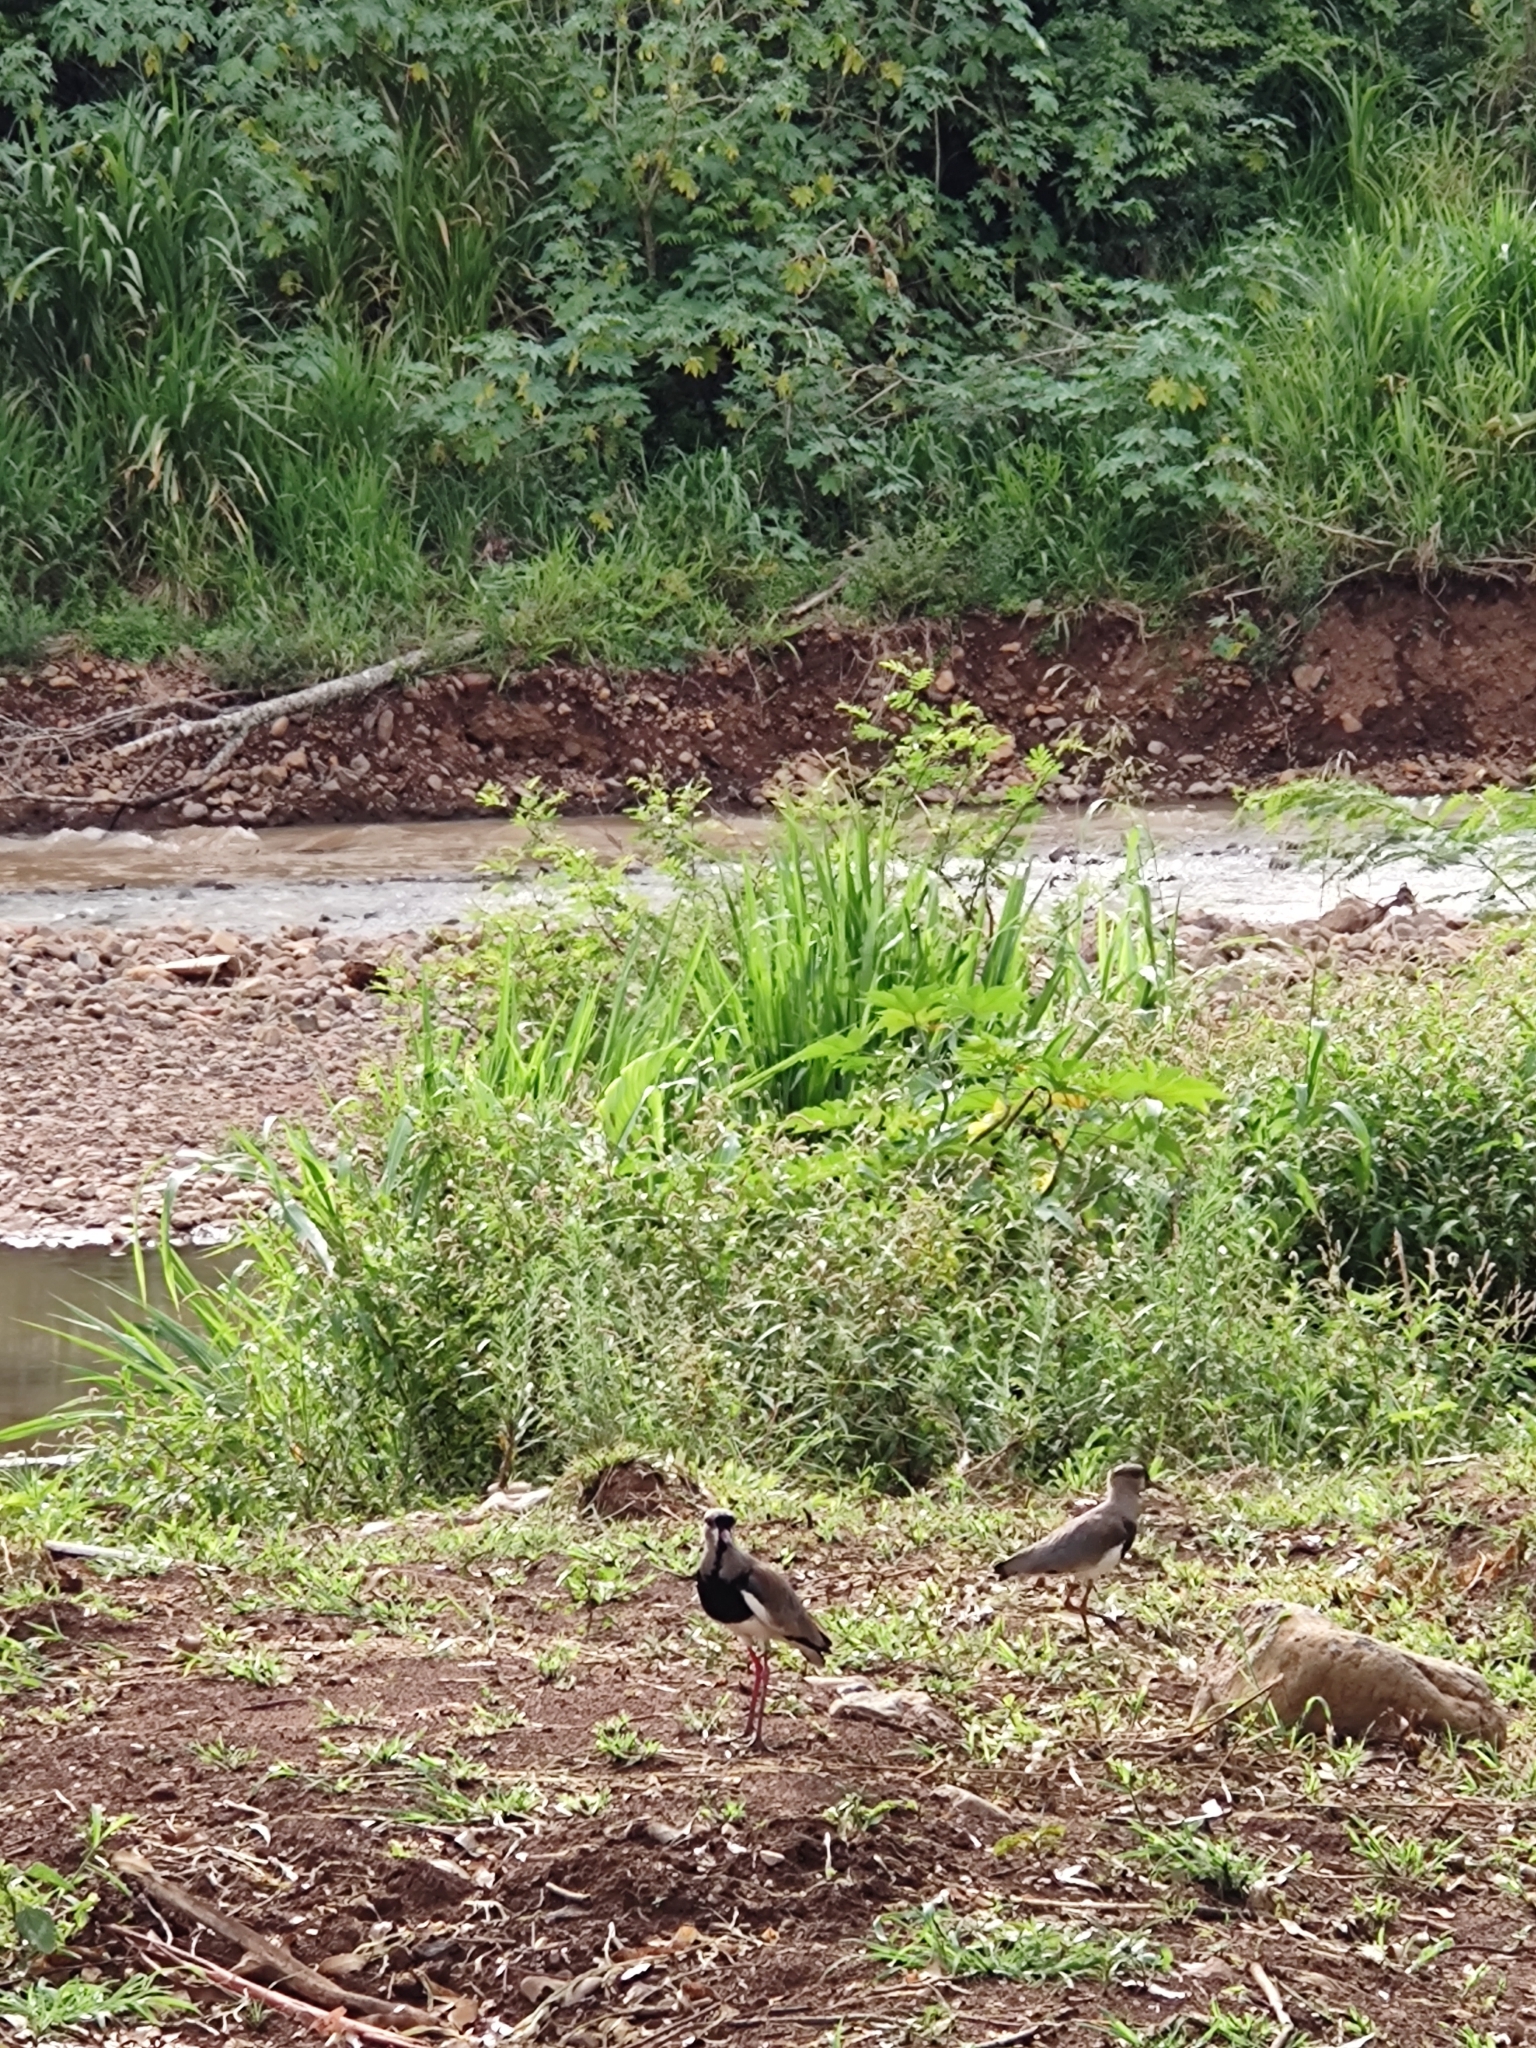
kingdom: Animalia
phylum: Chordata
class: Aves
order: Charadriiformes
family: Charadriidae
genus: Vanellus
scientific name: Vanellus chilensis
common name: Southern lapwing
